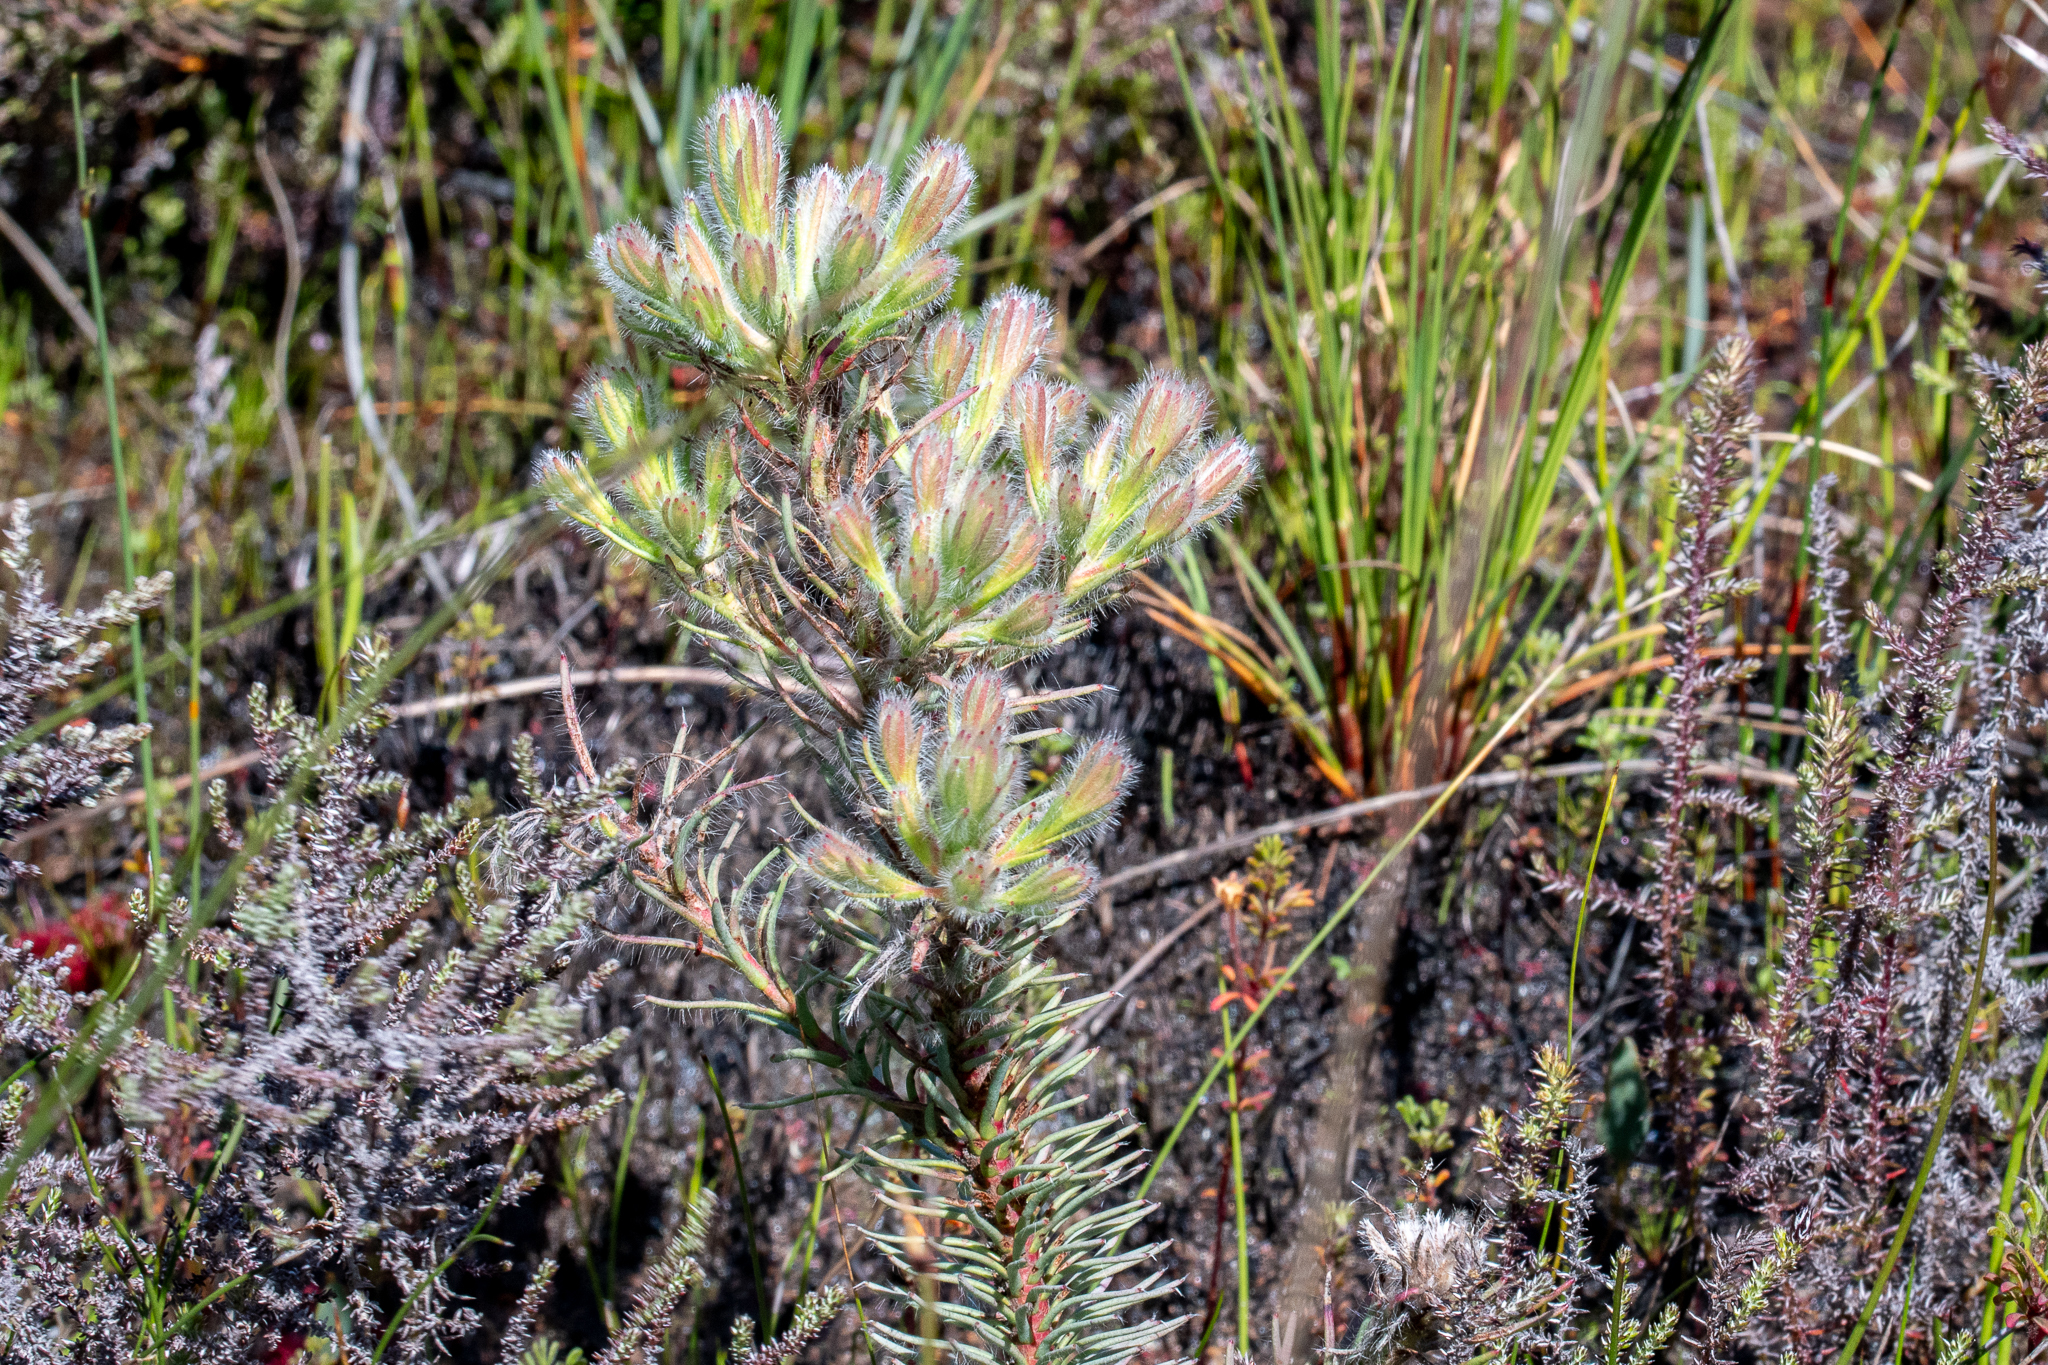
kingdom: Plantae
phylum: Tracheophyta
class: Magnoliopsida
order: Proteales
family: Proteaceae
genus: Leucadendron
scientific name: Leucadendron corymbosum
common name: Swartveld conebush
